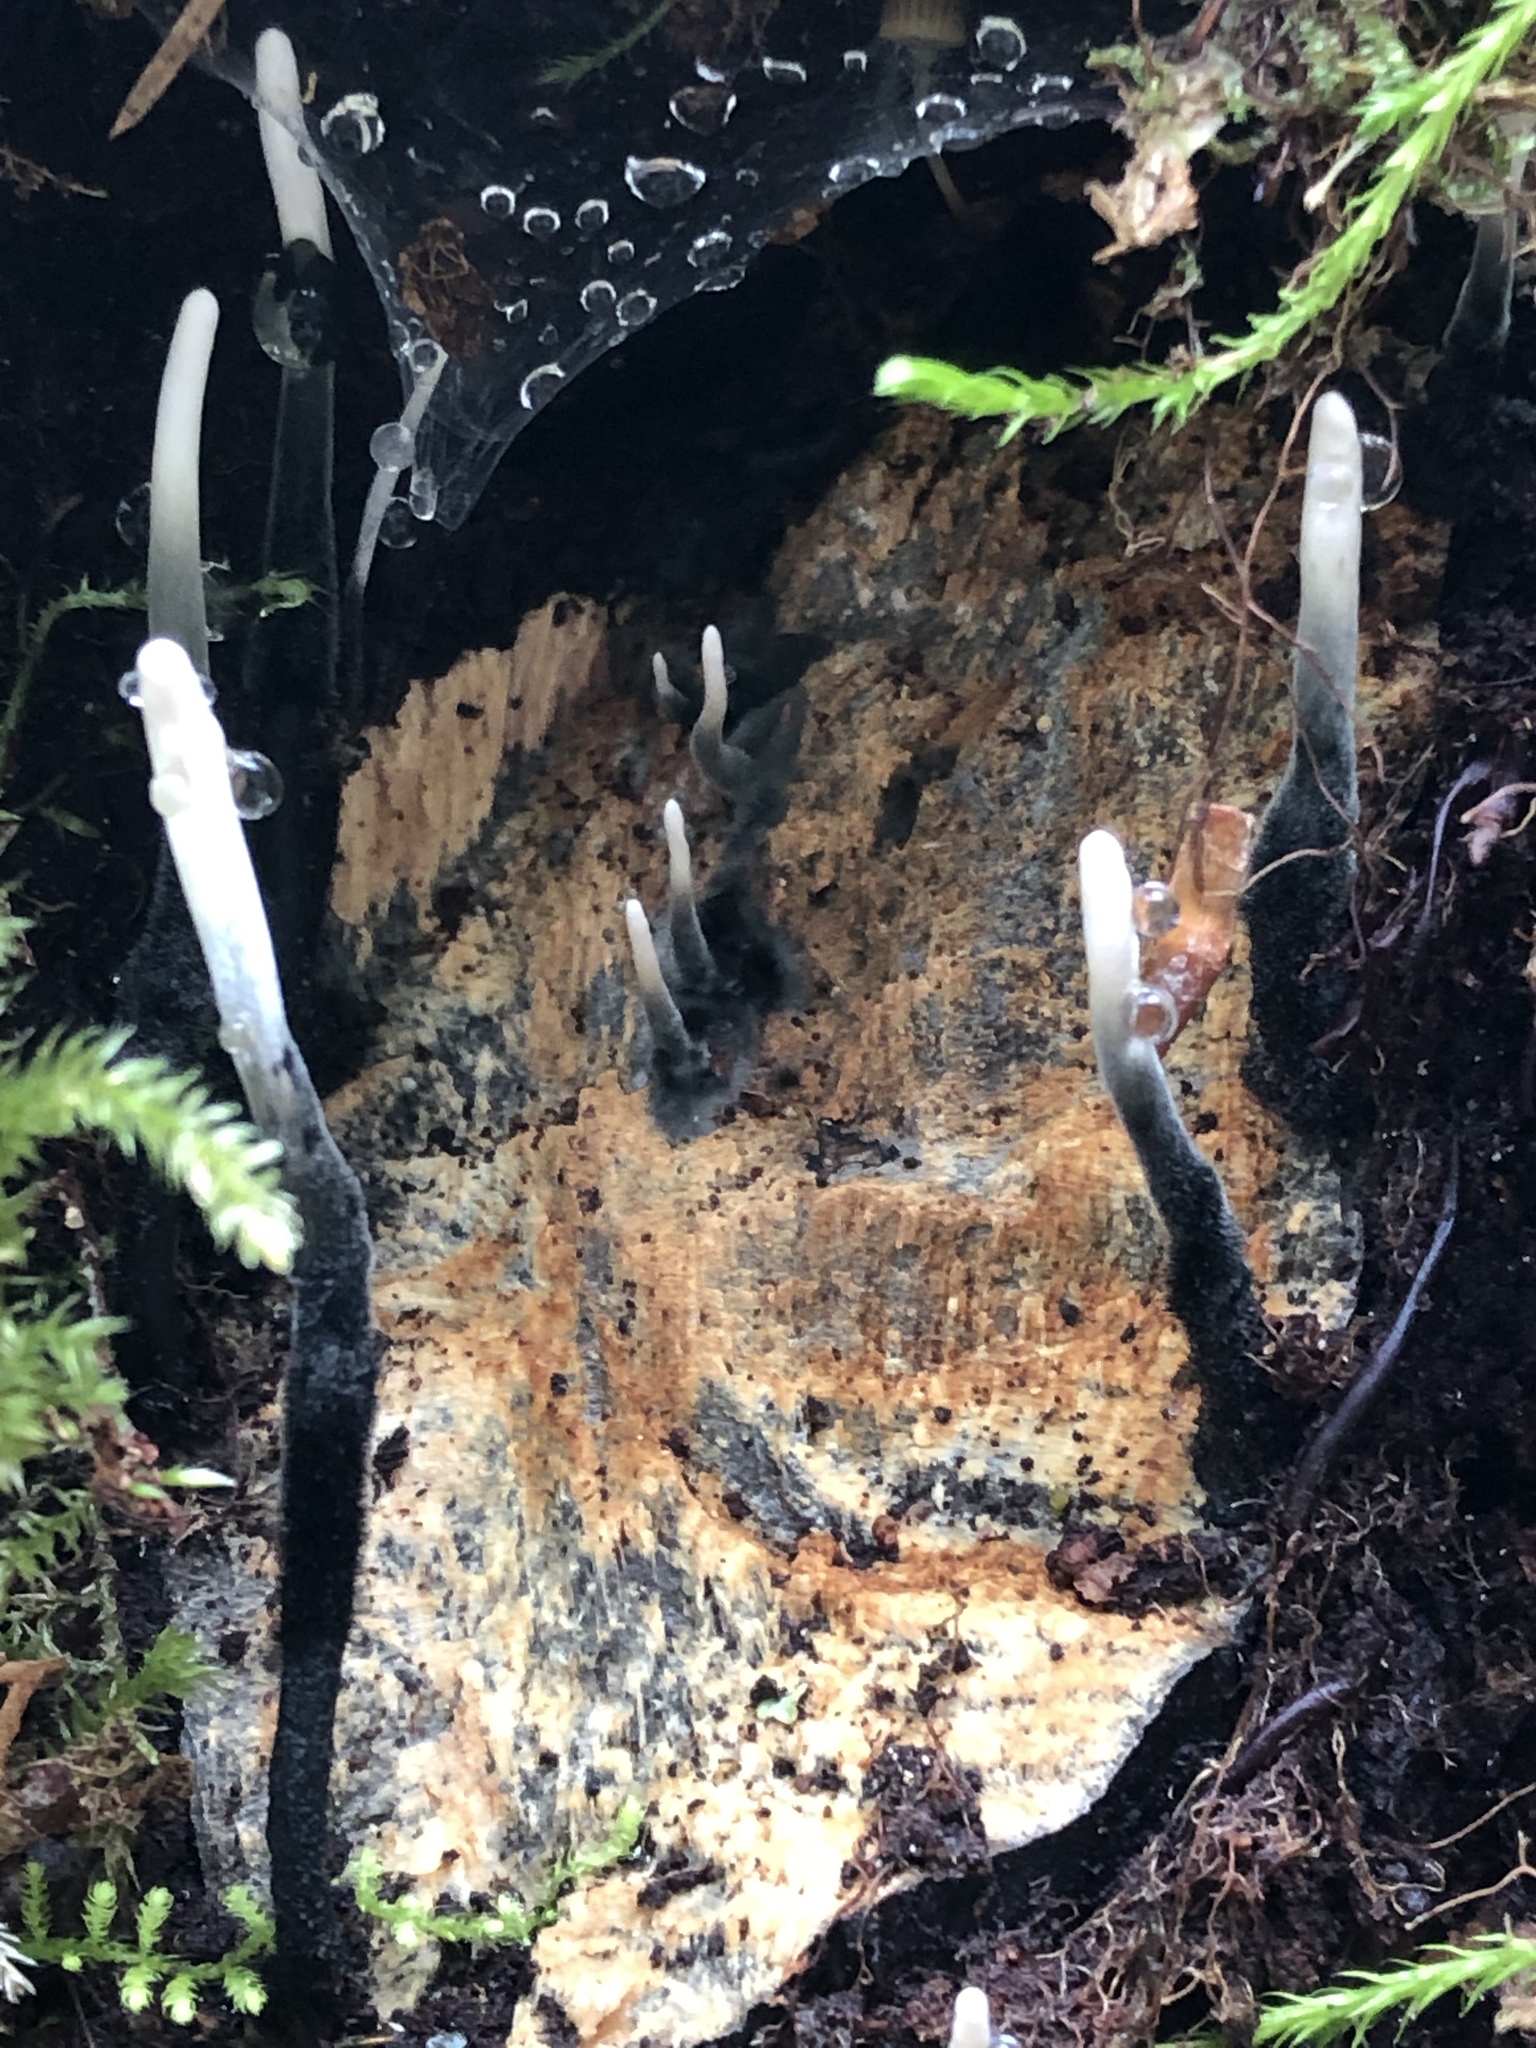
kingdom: Fungi
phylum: Ascomycota
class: Sordariomycetes
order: Xylariales
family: Xylariaceae
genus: Xylaria
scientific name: Xylaria hypoxylon
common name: Candle-snuff fungus
